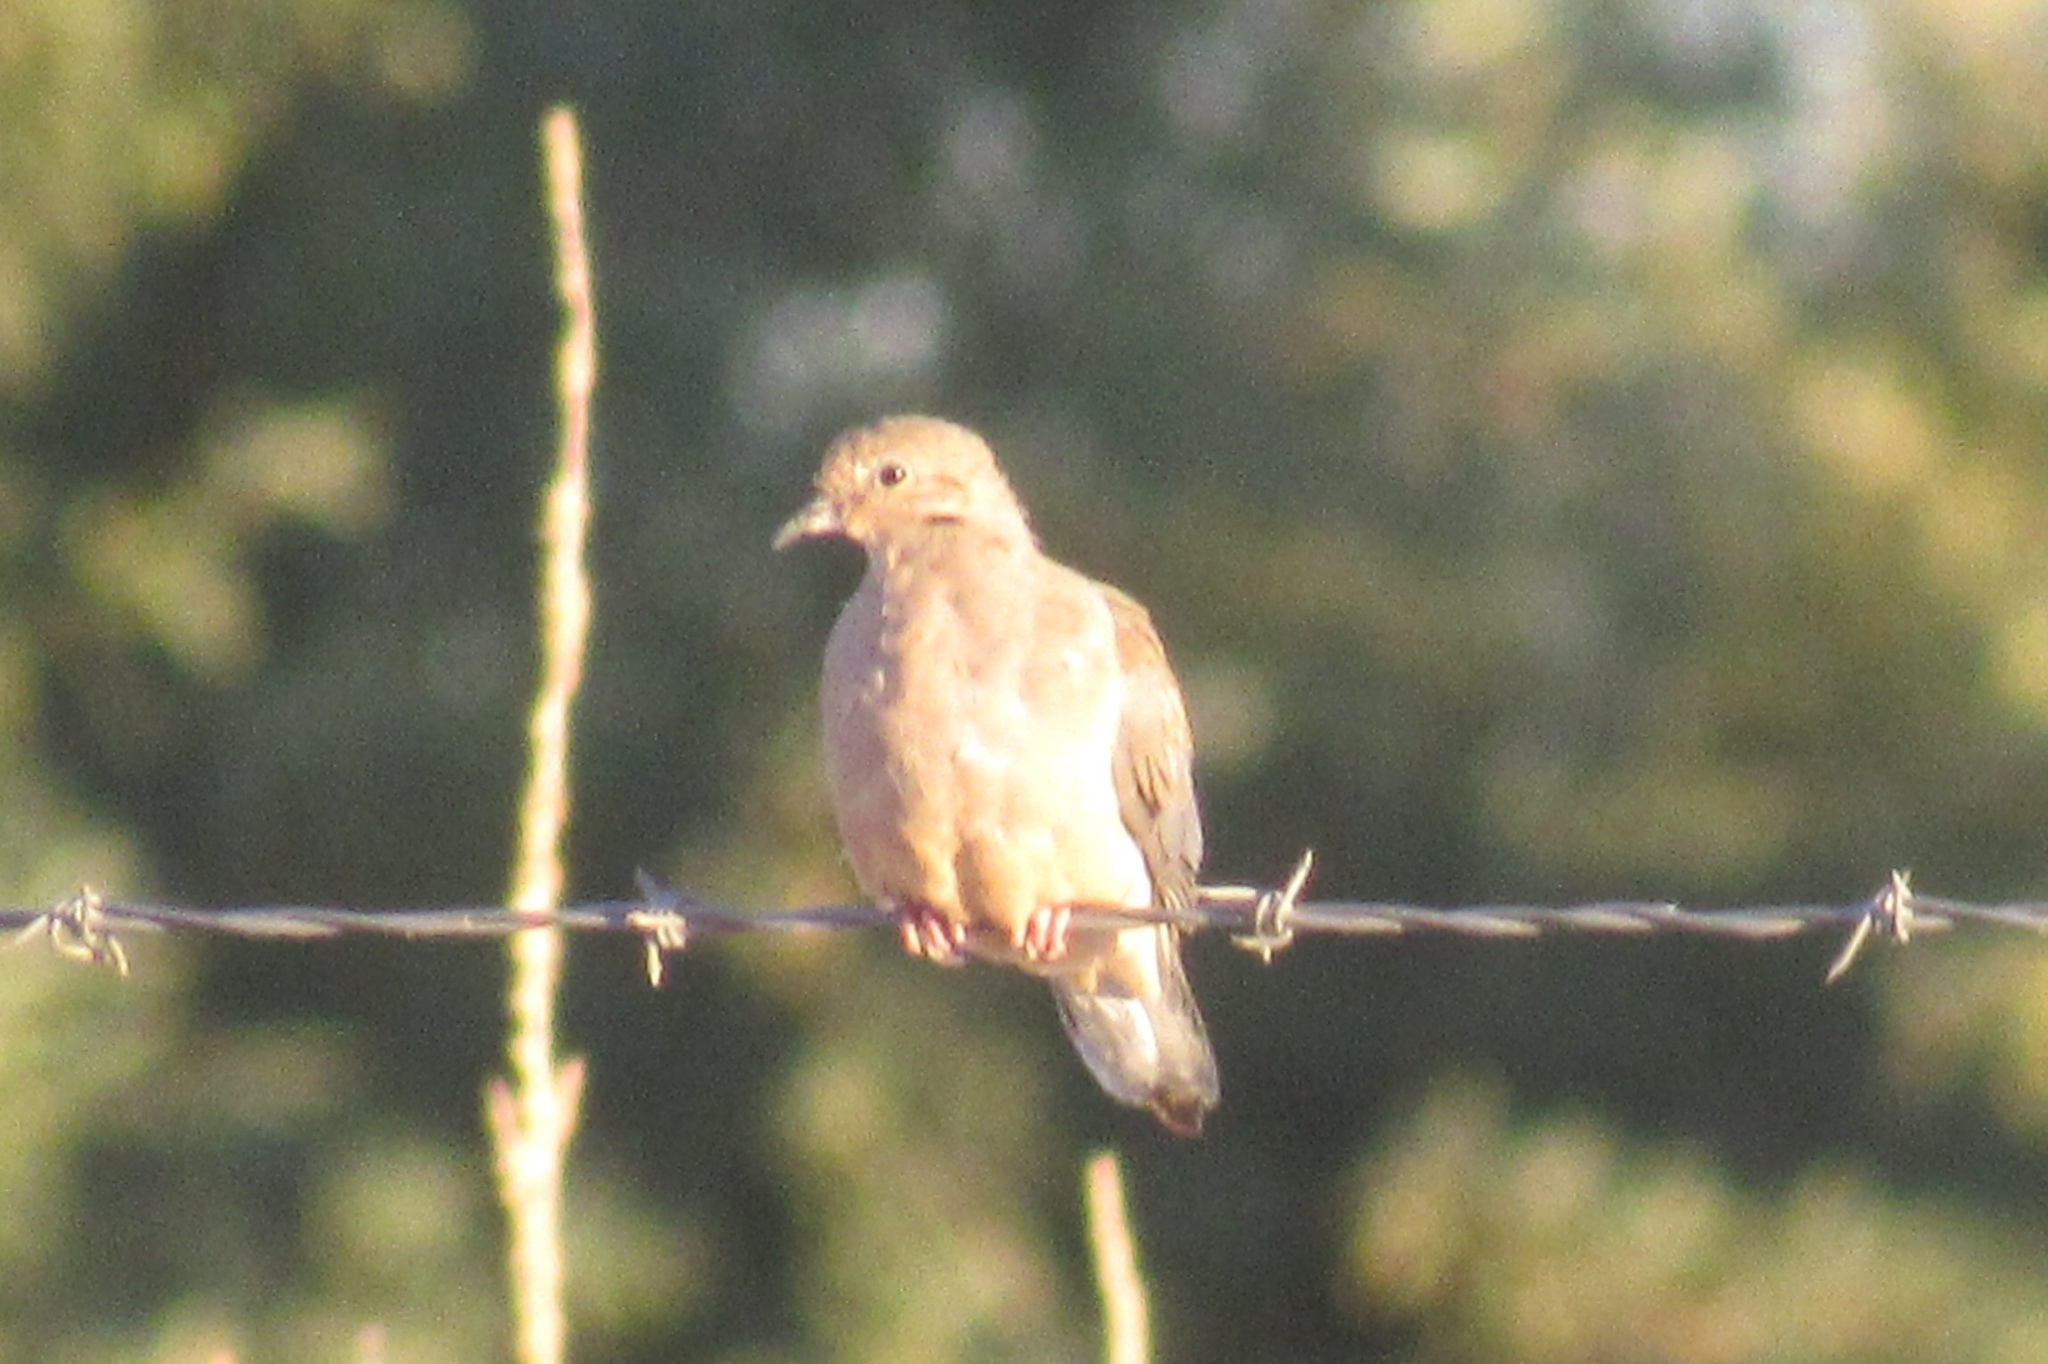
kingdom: Animalia
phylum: Chordata
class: Aves
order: Columbiformes
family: Columbidae
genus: Zenaida
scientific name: Zenaida macroura
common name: Mourning dove
